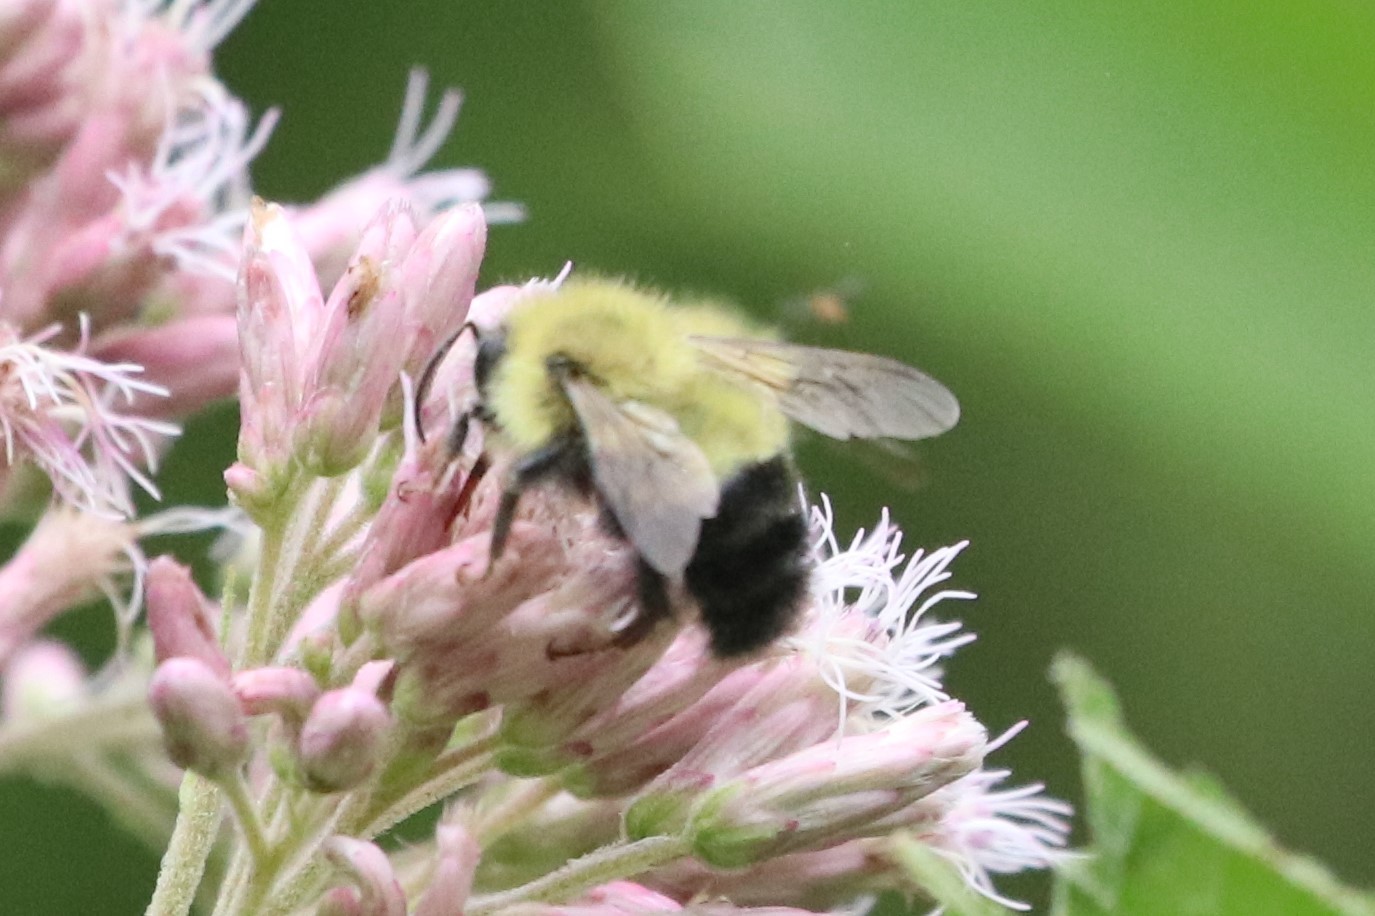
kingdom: Animalia
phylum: Arthropoda
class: Insecta
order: Hymenoptera
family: Apidae
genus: Pyrobombus
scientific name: Pyrobombus
